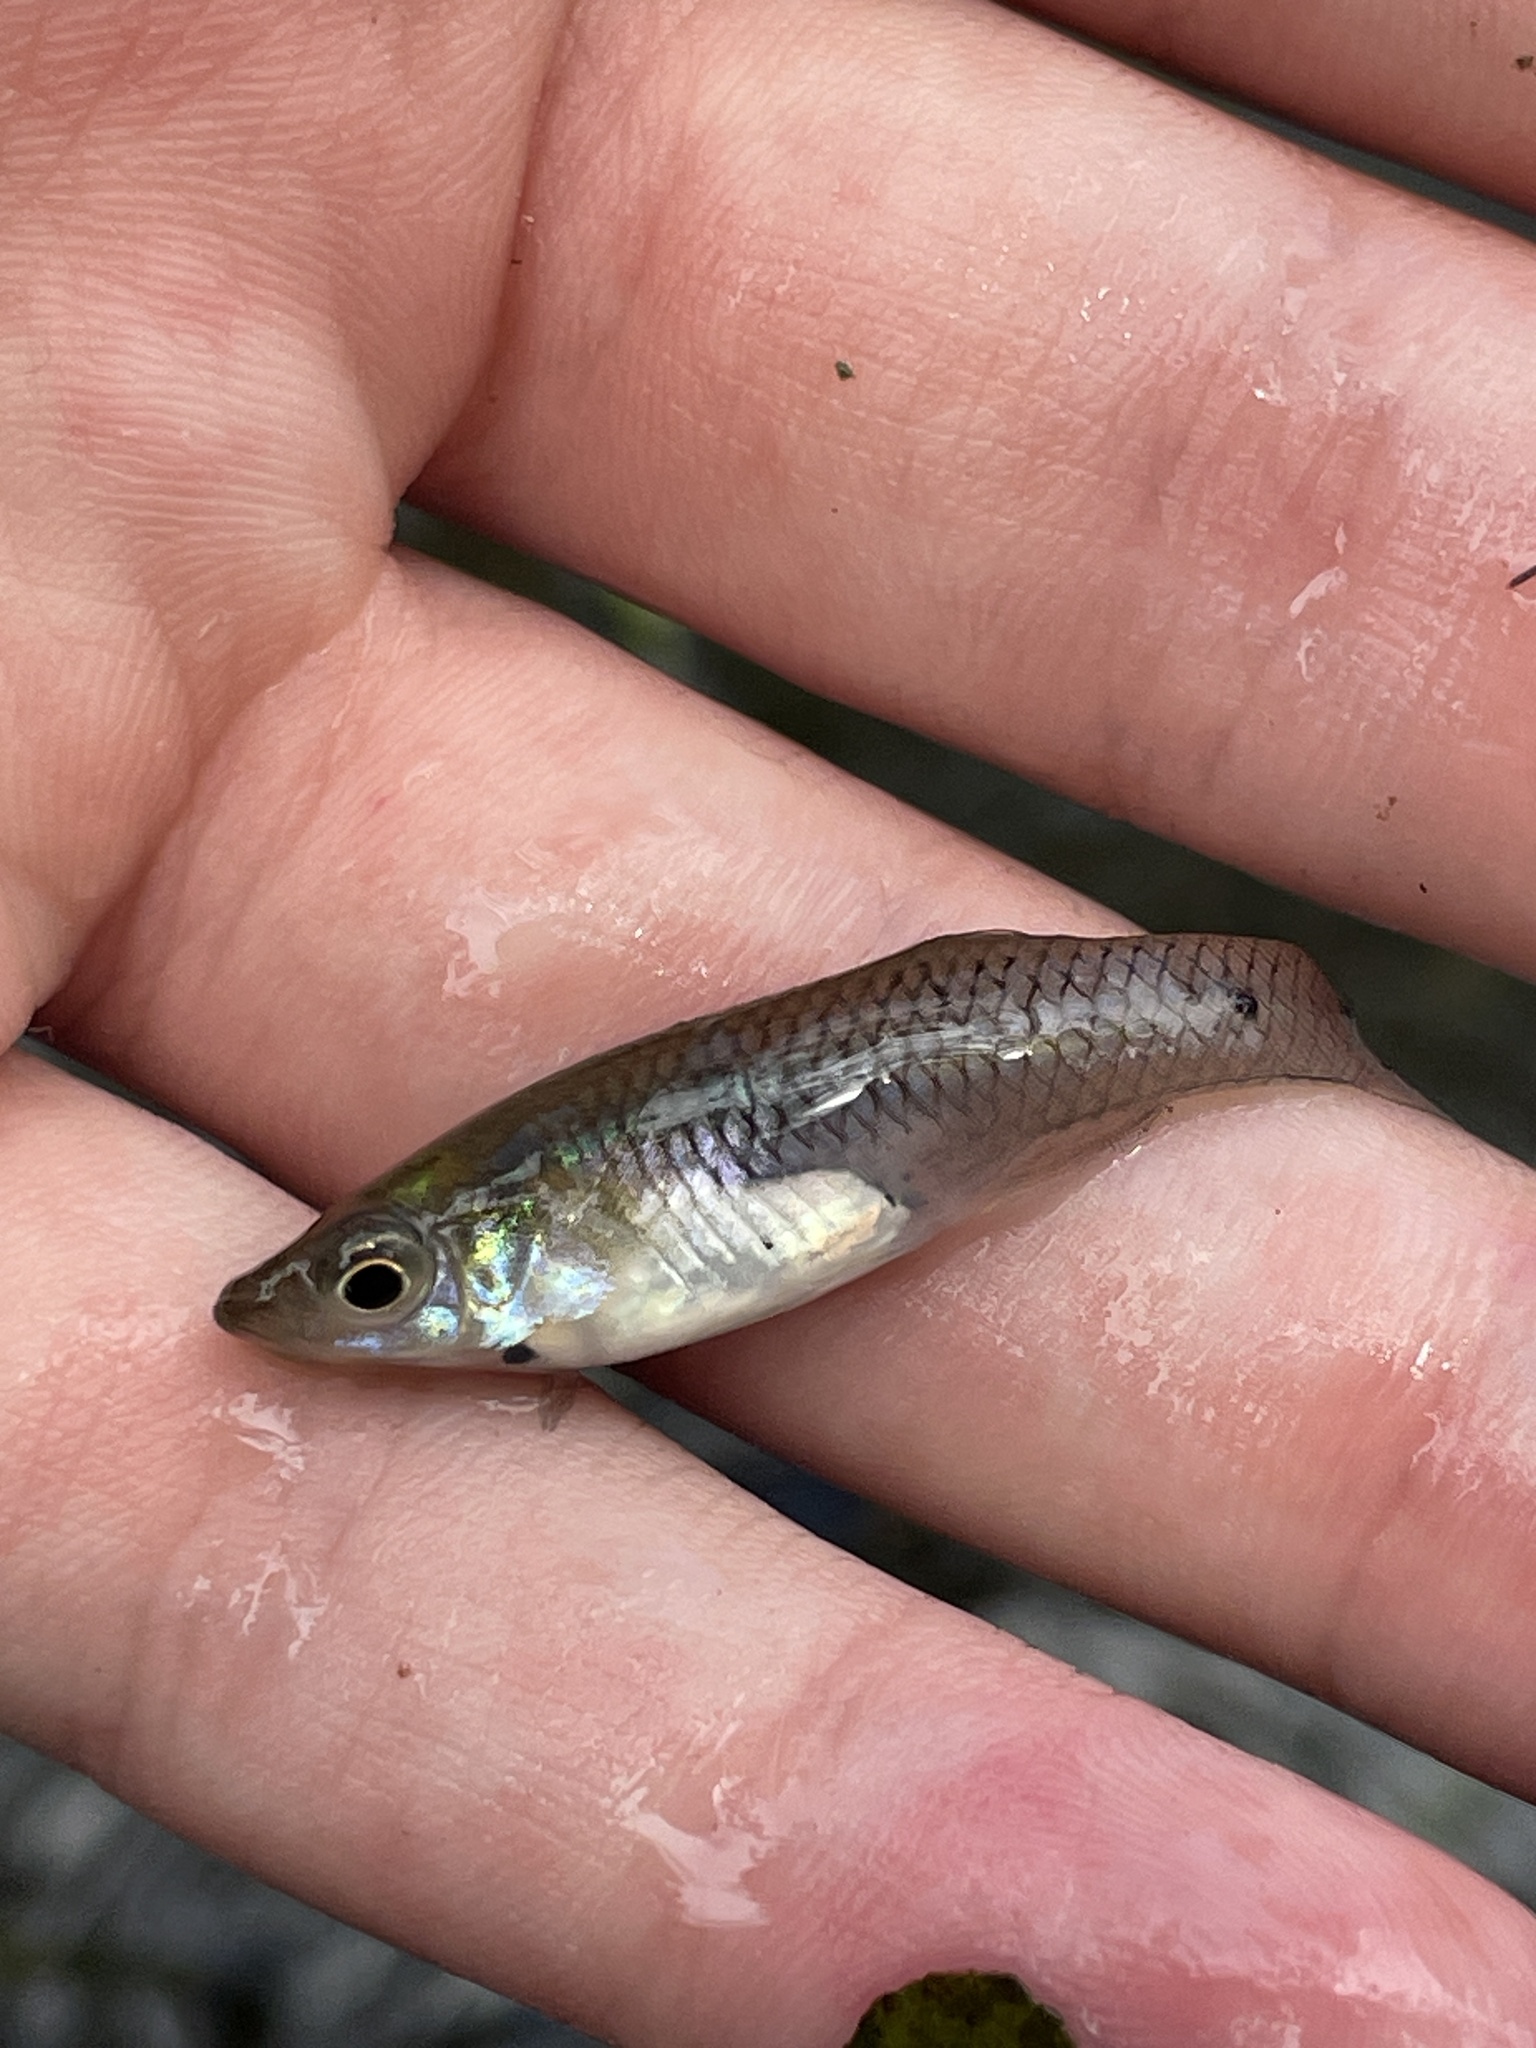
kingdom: Animalia
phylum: Chordata
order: Cyprinodontiformes
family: Poeciliidae
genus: Gambusia
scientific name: Gambusia holbrooki
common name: Eastern mosquitofish
